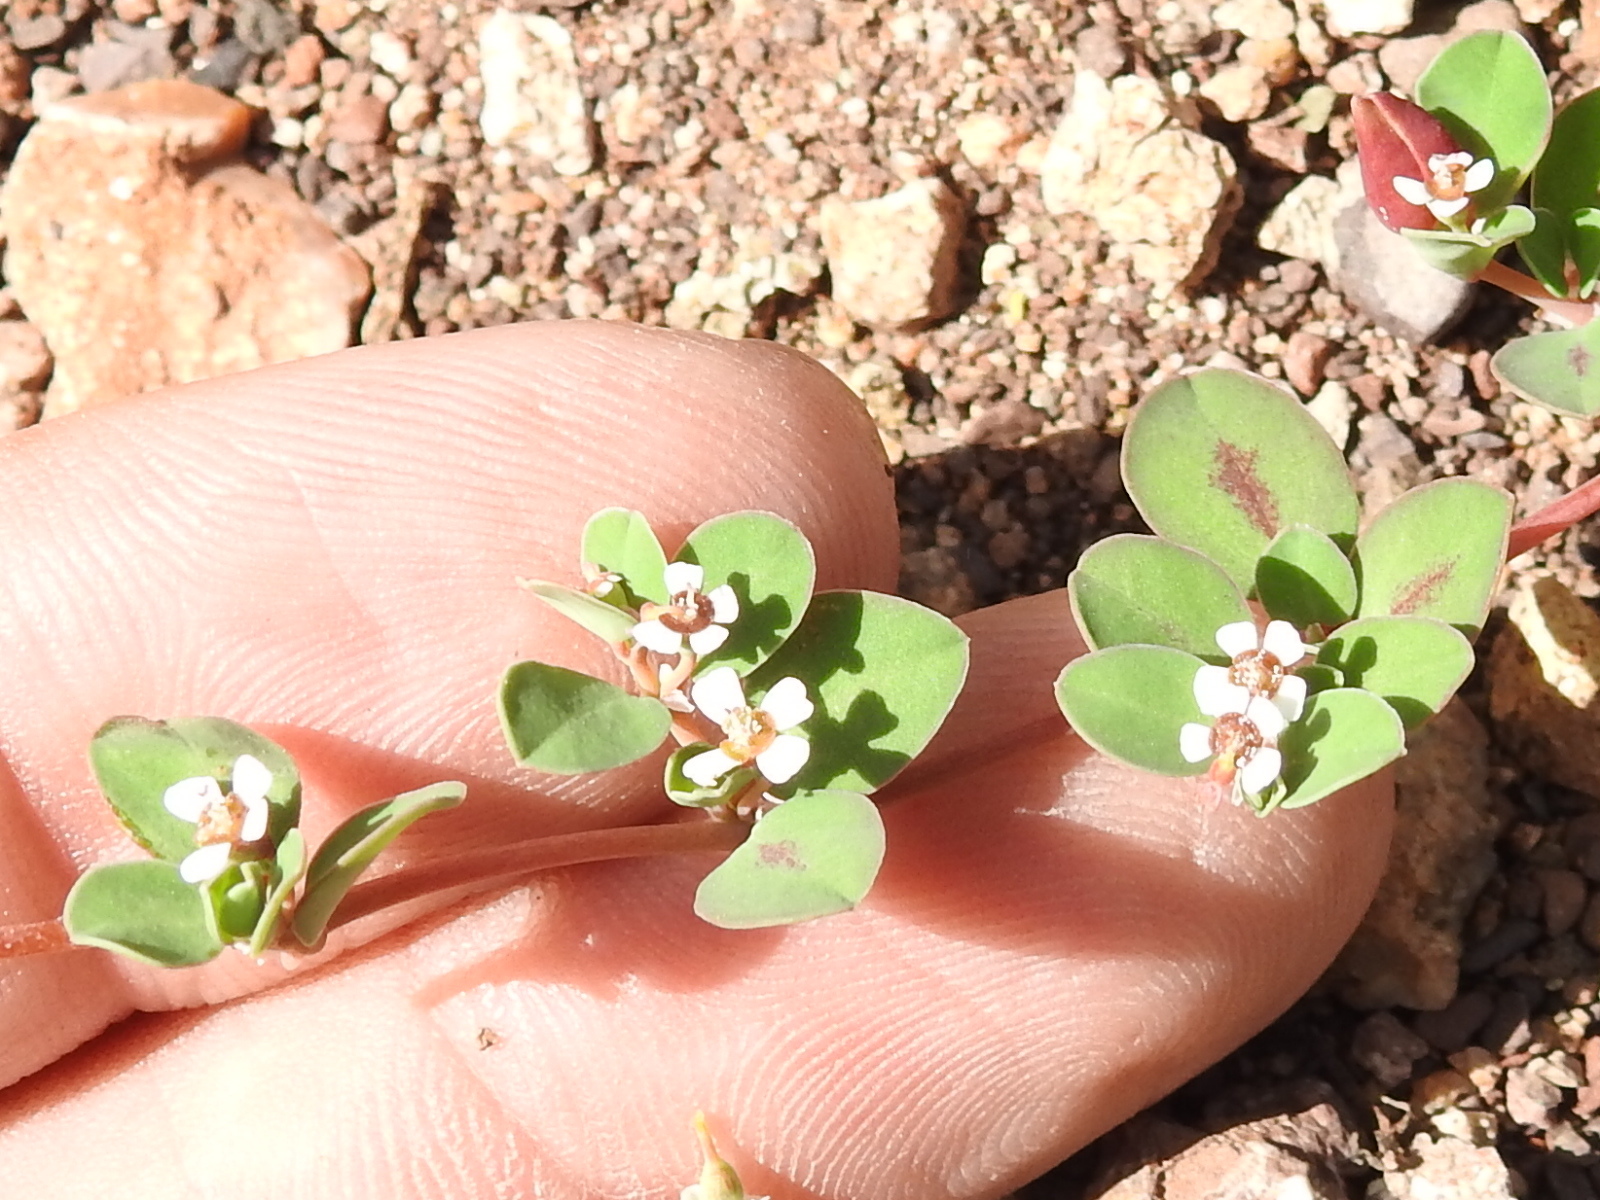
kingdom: Plantae
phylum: Tracheophyta
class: Magnoliopsida
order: Malpighiales
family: Euphorbiaceae
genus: Euphorbia
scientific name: Euphorbia albomarginata
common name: Whitemargin sandmat
